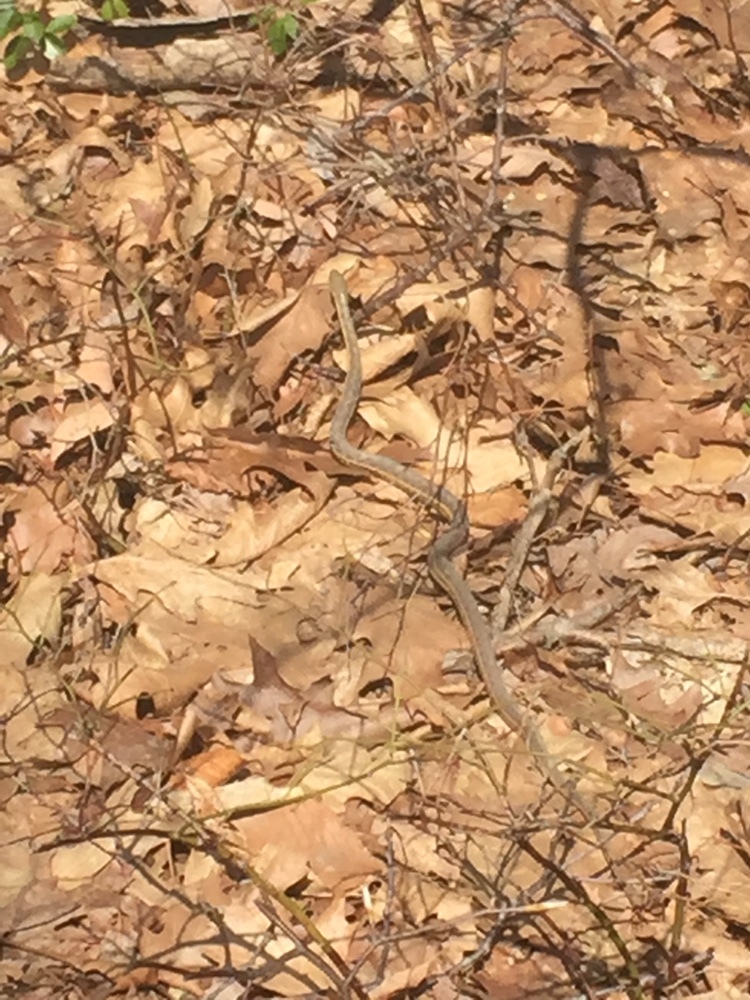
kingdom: Animalia
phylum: Chordata
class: Squamata
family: Colubridae
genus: Thamnophis
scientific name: Thamnophis sirtalis
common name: Common garter snake
